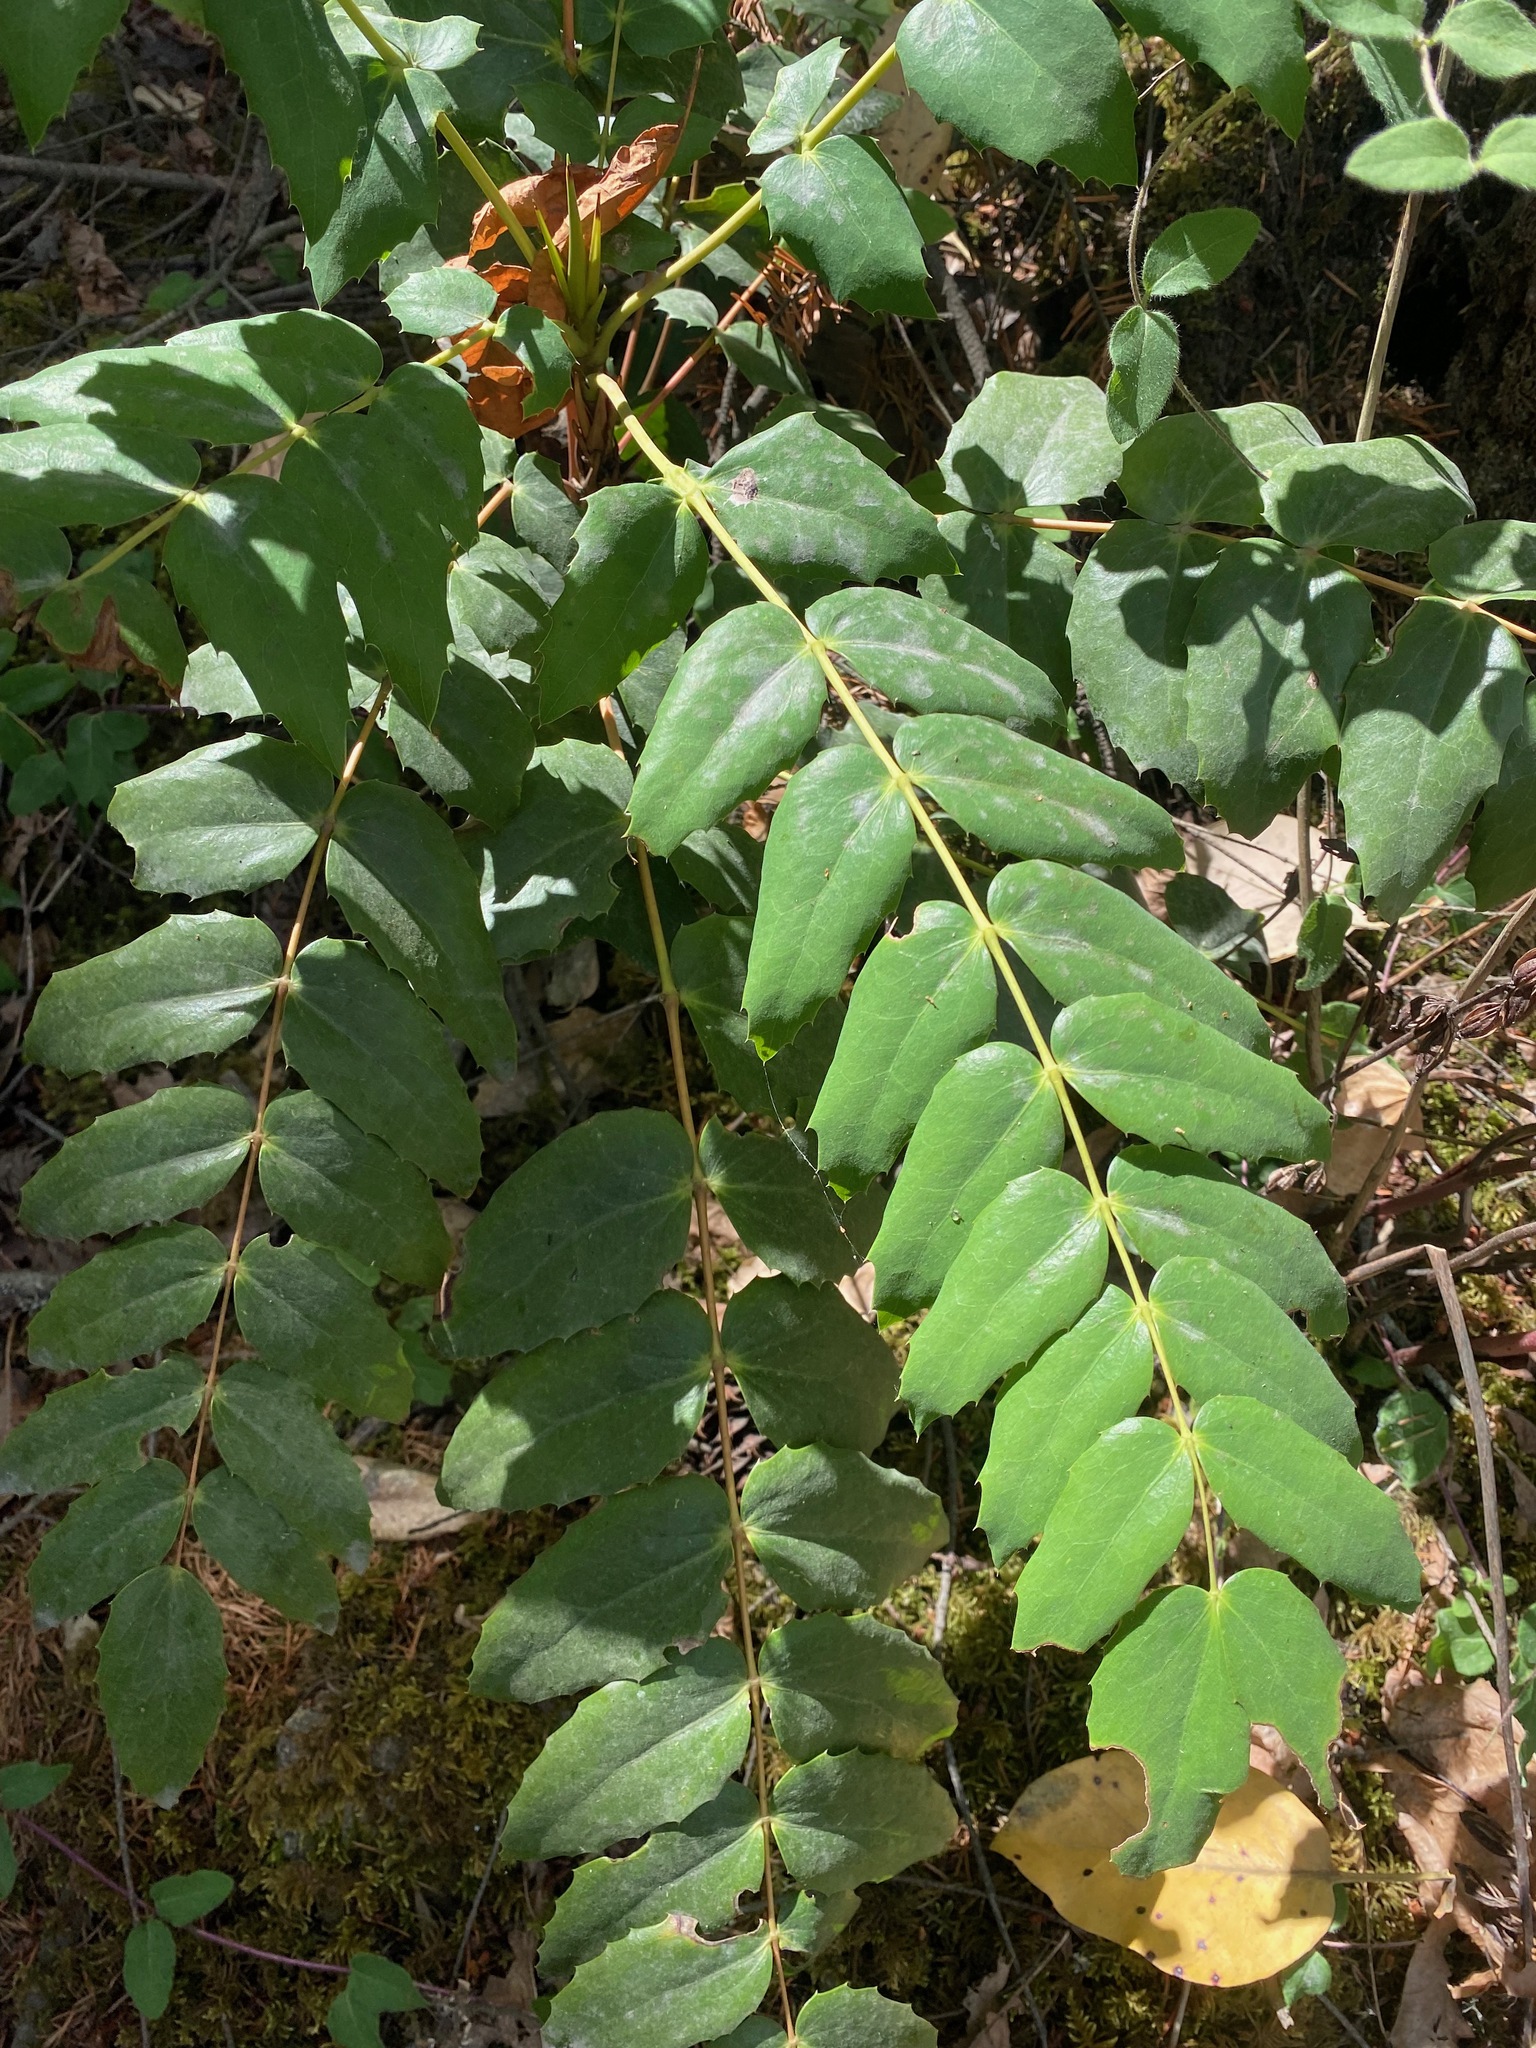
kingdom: Plantae
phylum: Tracheophyta
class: Magnoliopsida
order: Ranunculales
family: Berberidaceae
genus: Mahonia
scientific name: Mahonia nervosa
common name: Cascade oregon-grape
